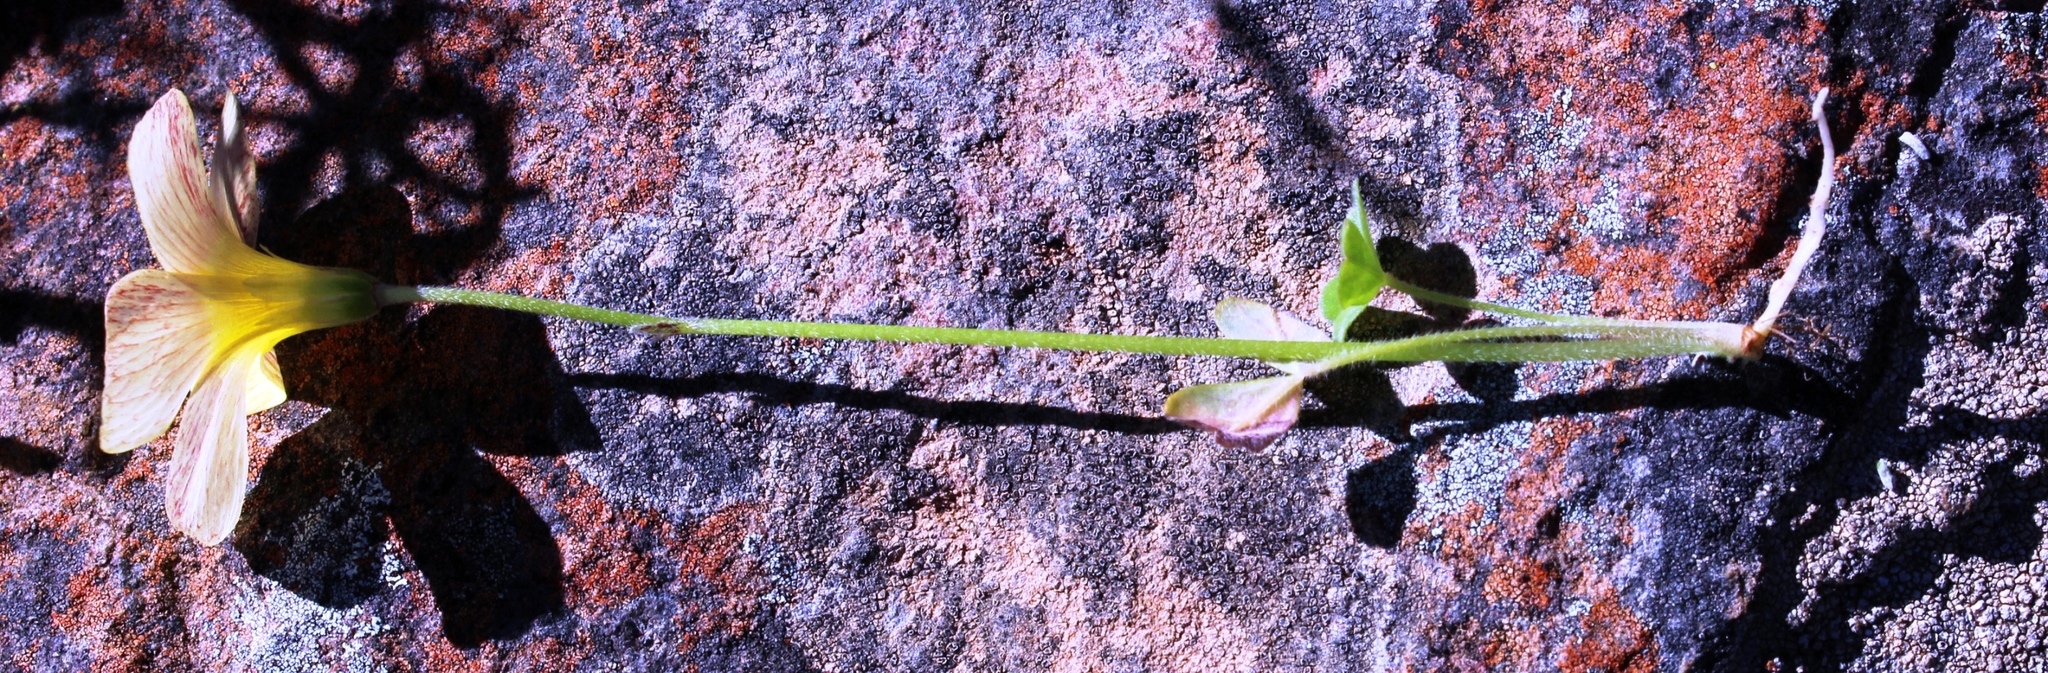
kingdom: Plantae
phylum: Tracheophyta
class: Magnoliopsida
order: Oxalidales
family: Oxalidaceae
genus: Oxalis
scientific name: Oxalis obtusa
